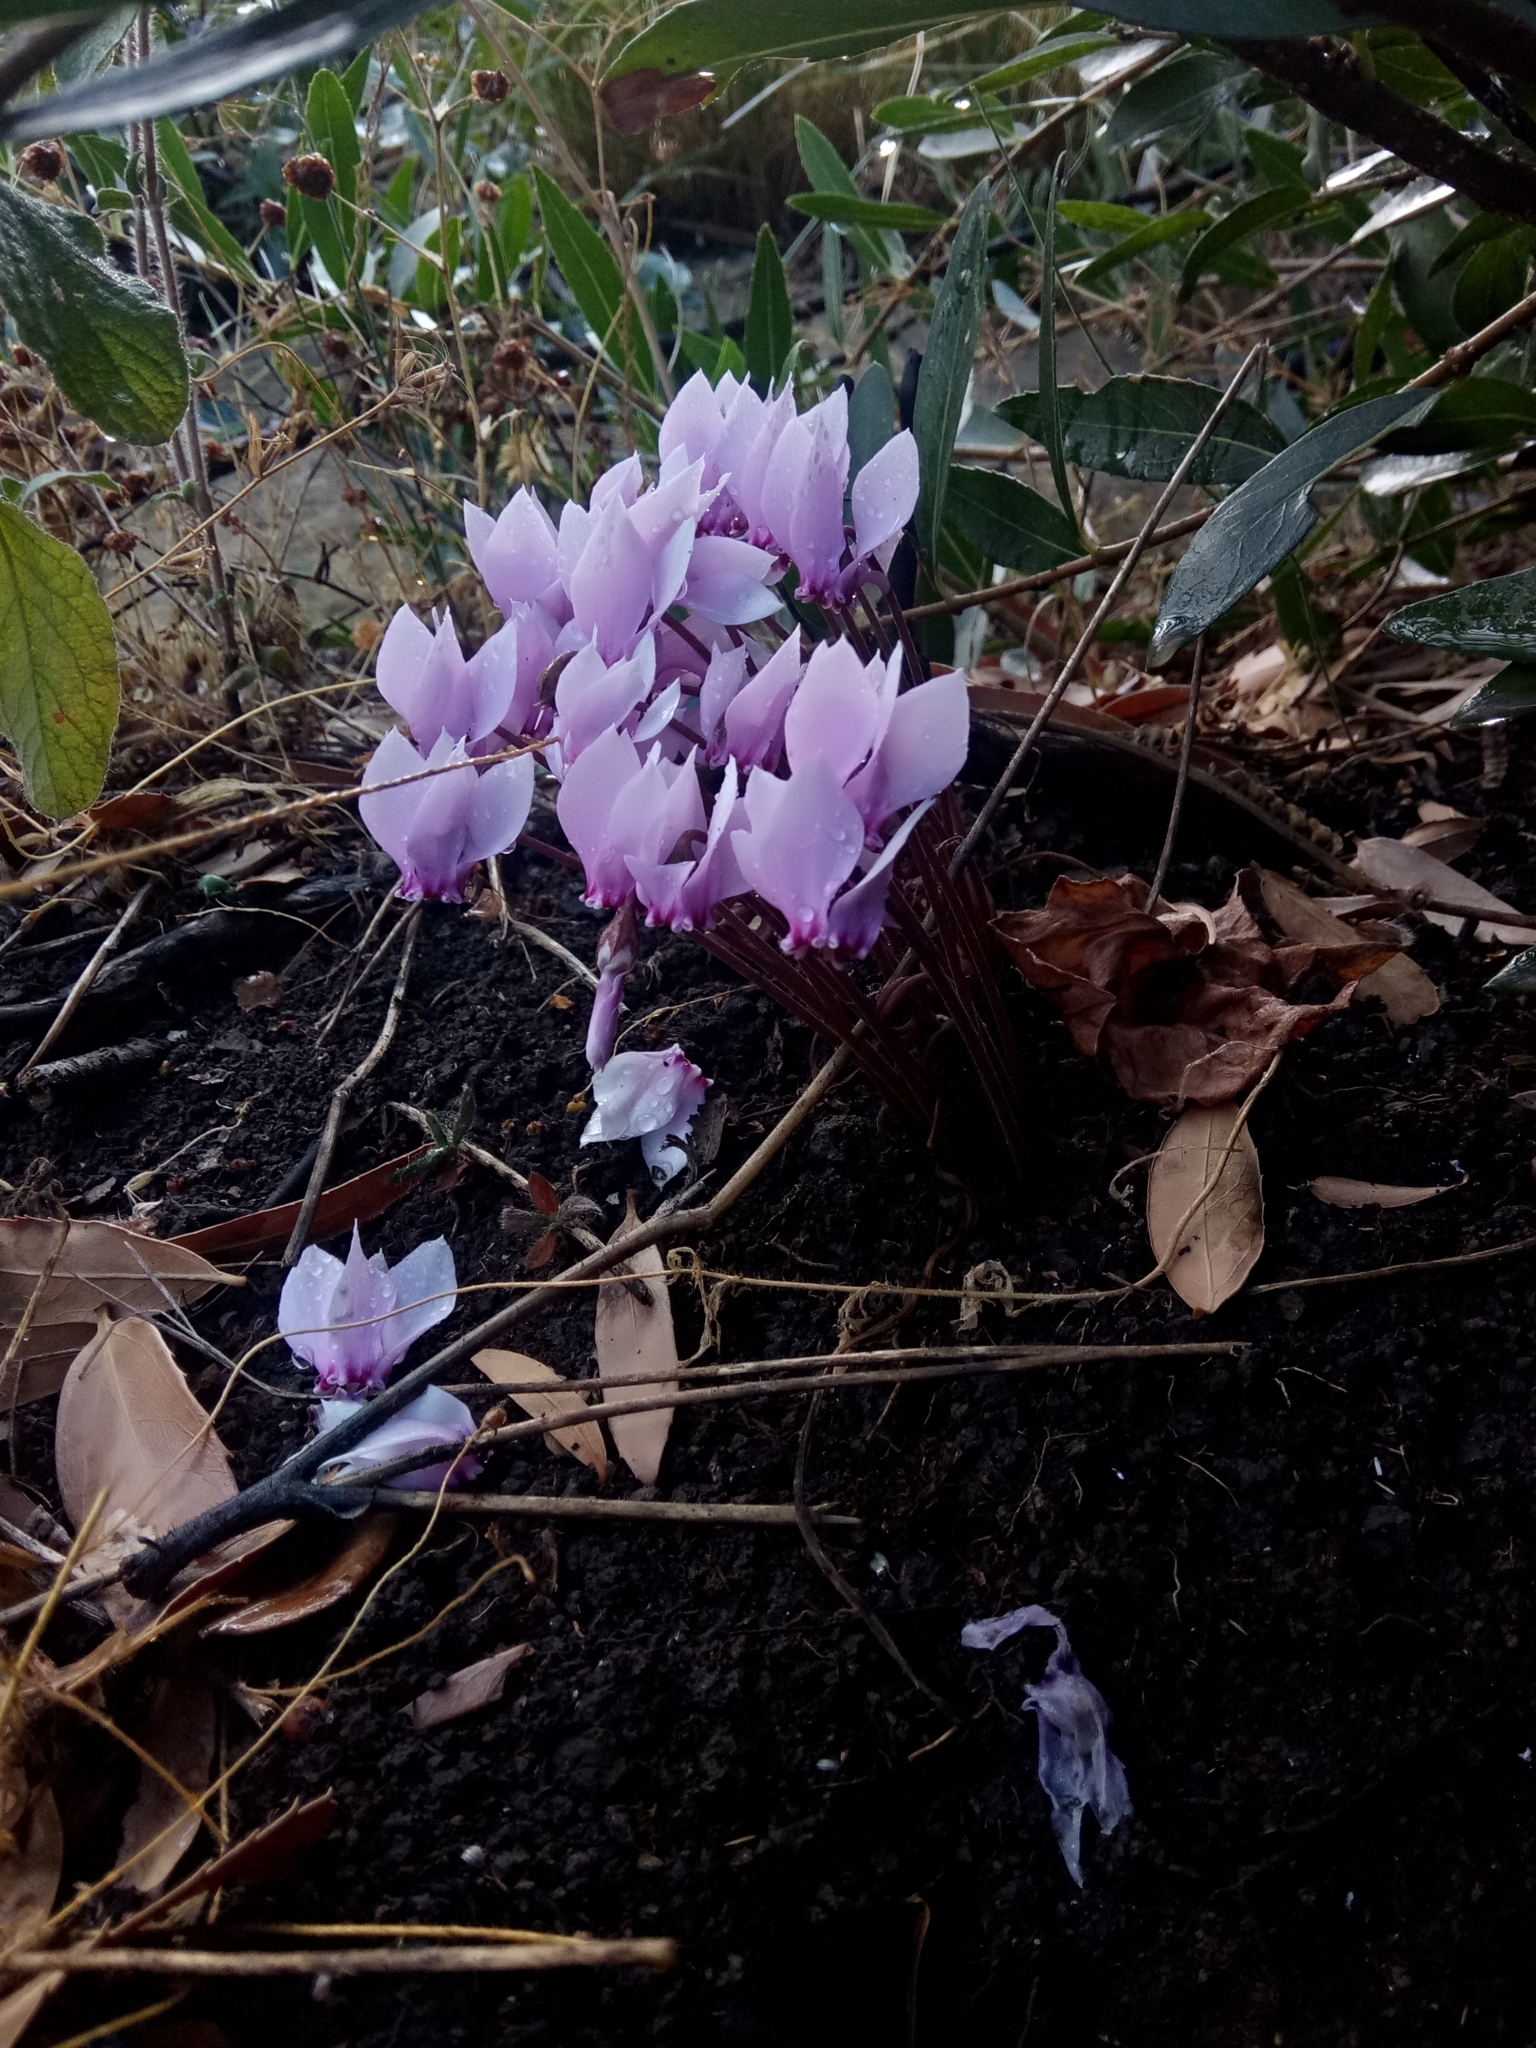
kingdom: Plantae
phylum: Tracheophyta
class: Magnoliopsida
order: Ericales
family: Primulaceae
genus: Cyclamen
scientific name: Cyclamen africanum
